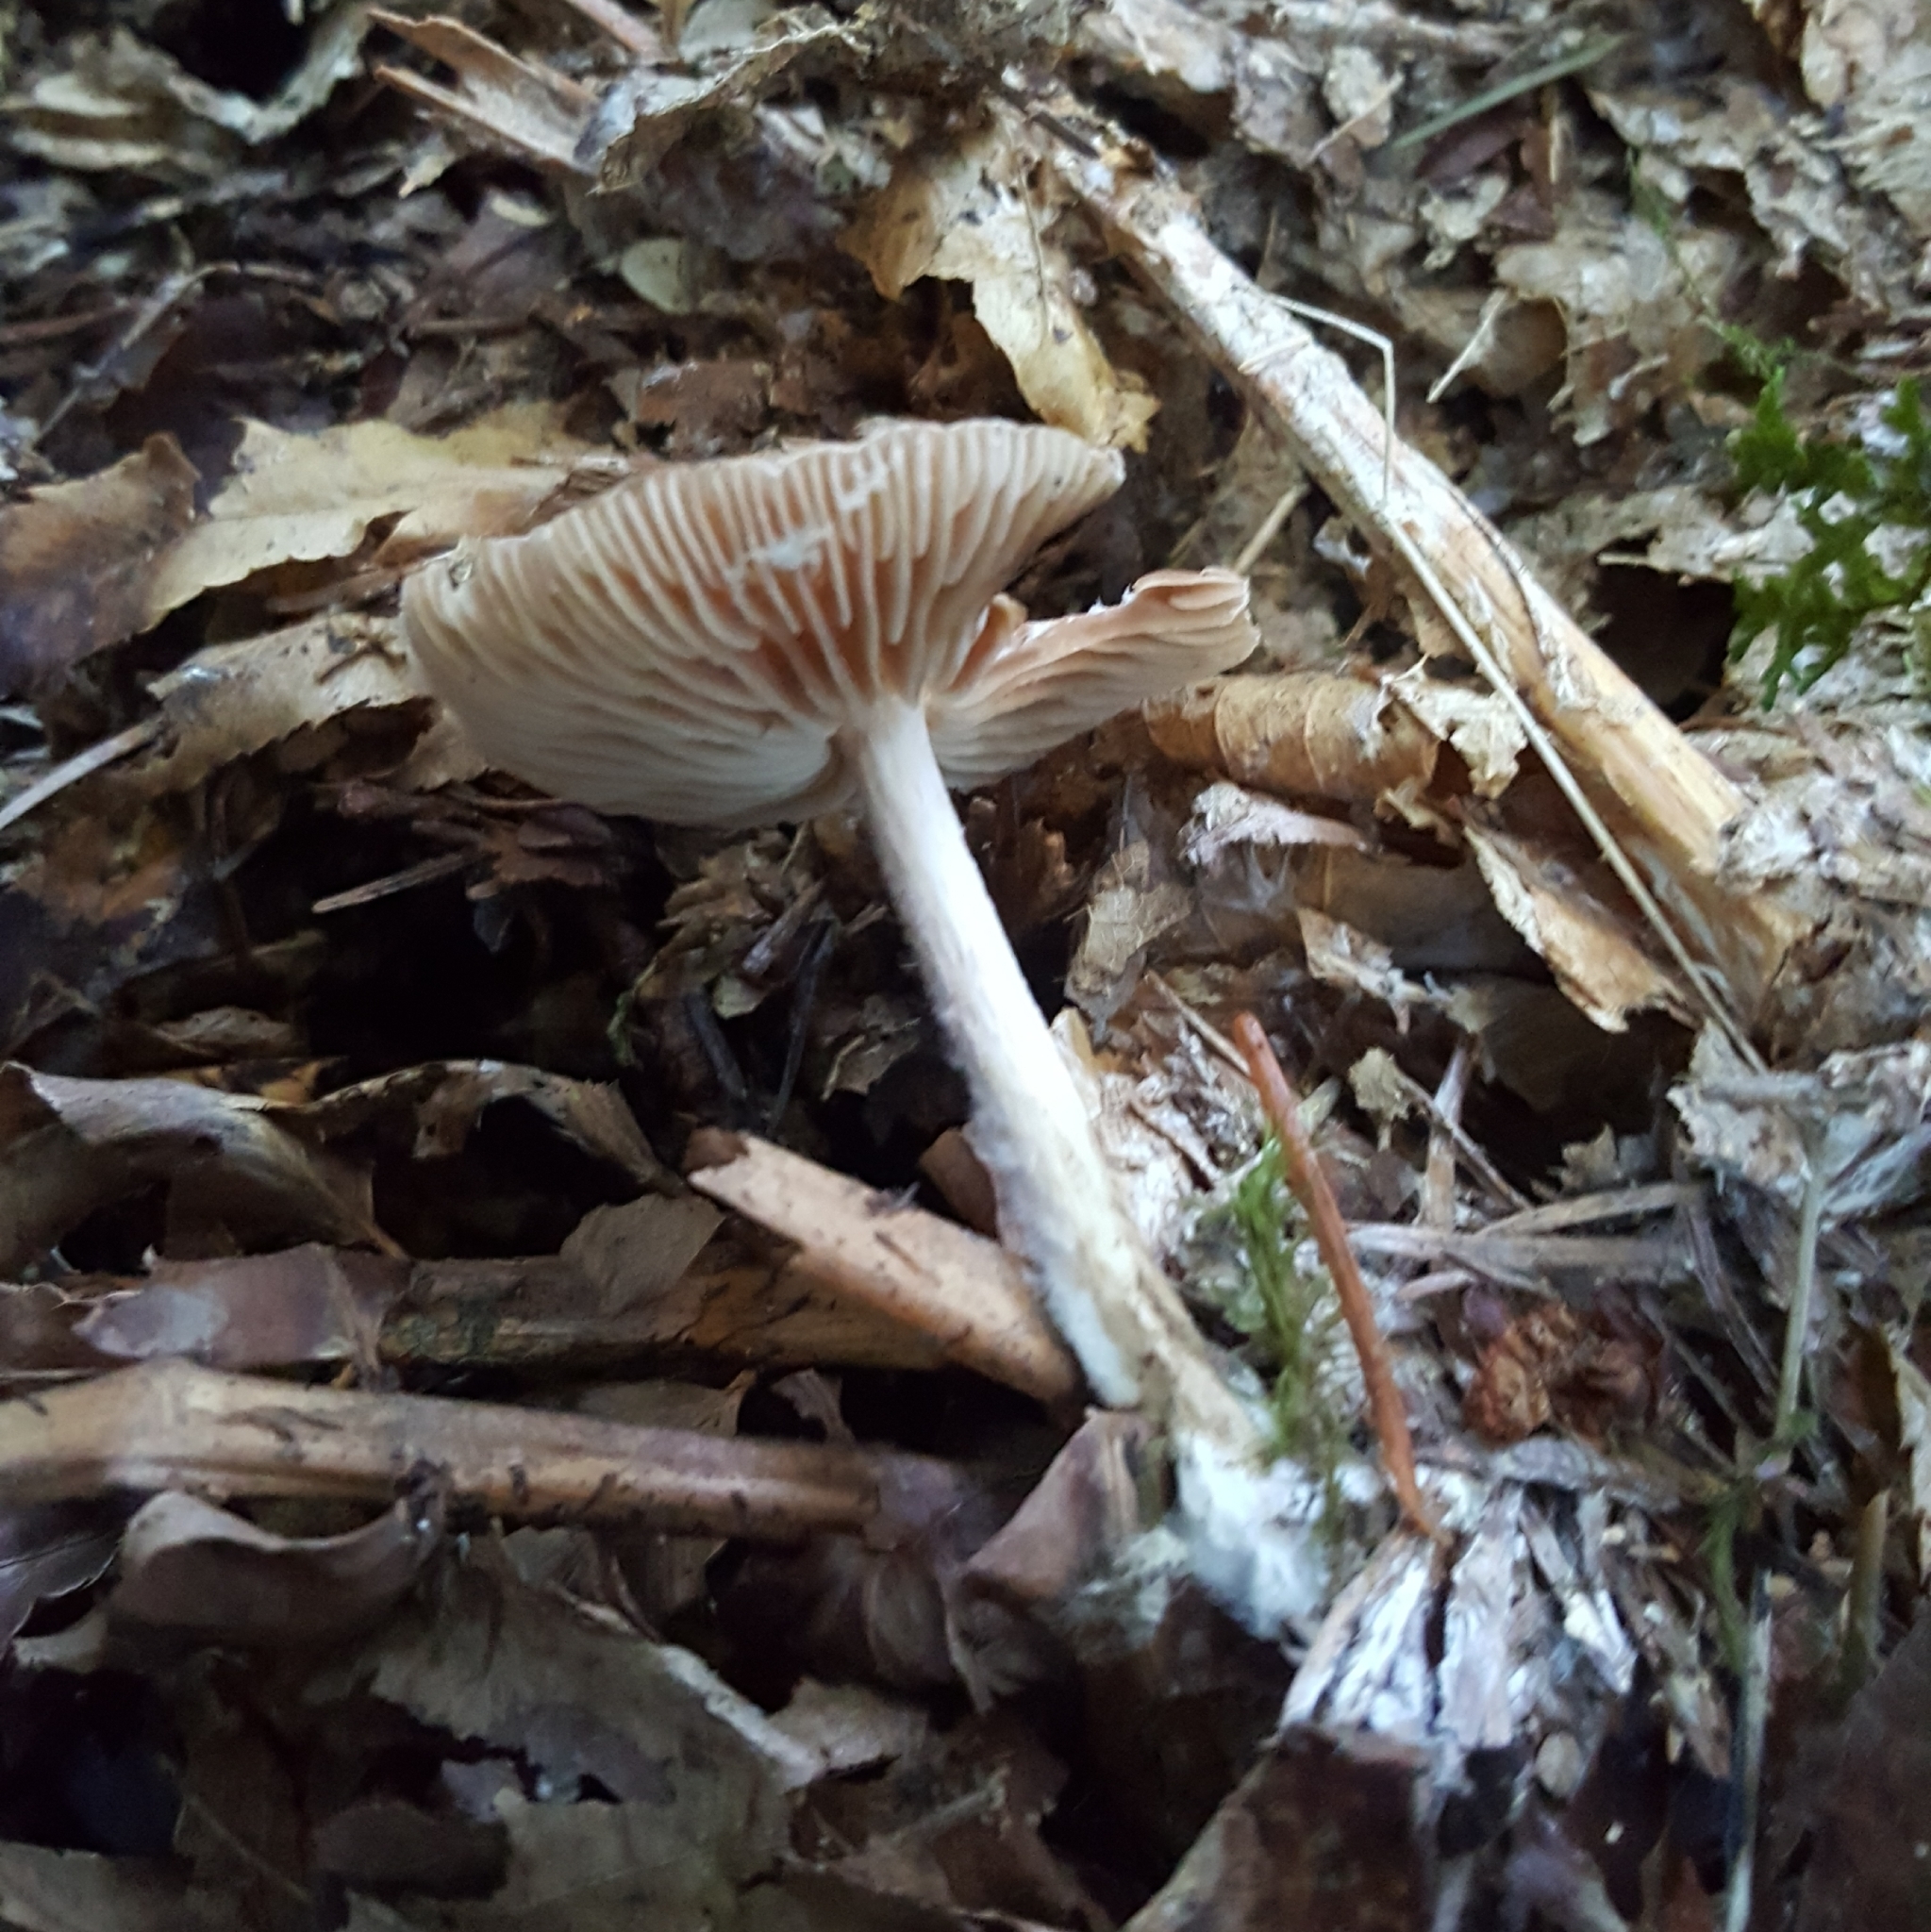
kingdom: Fungi
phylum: Basidiomycota
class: Agaricomycetes
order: Agaricales
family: Omphalotaceae
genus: Collybiopsis
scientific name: Collybiopsis peronata
